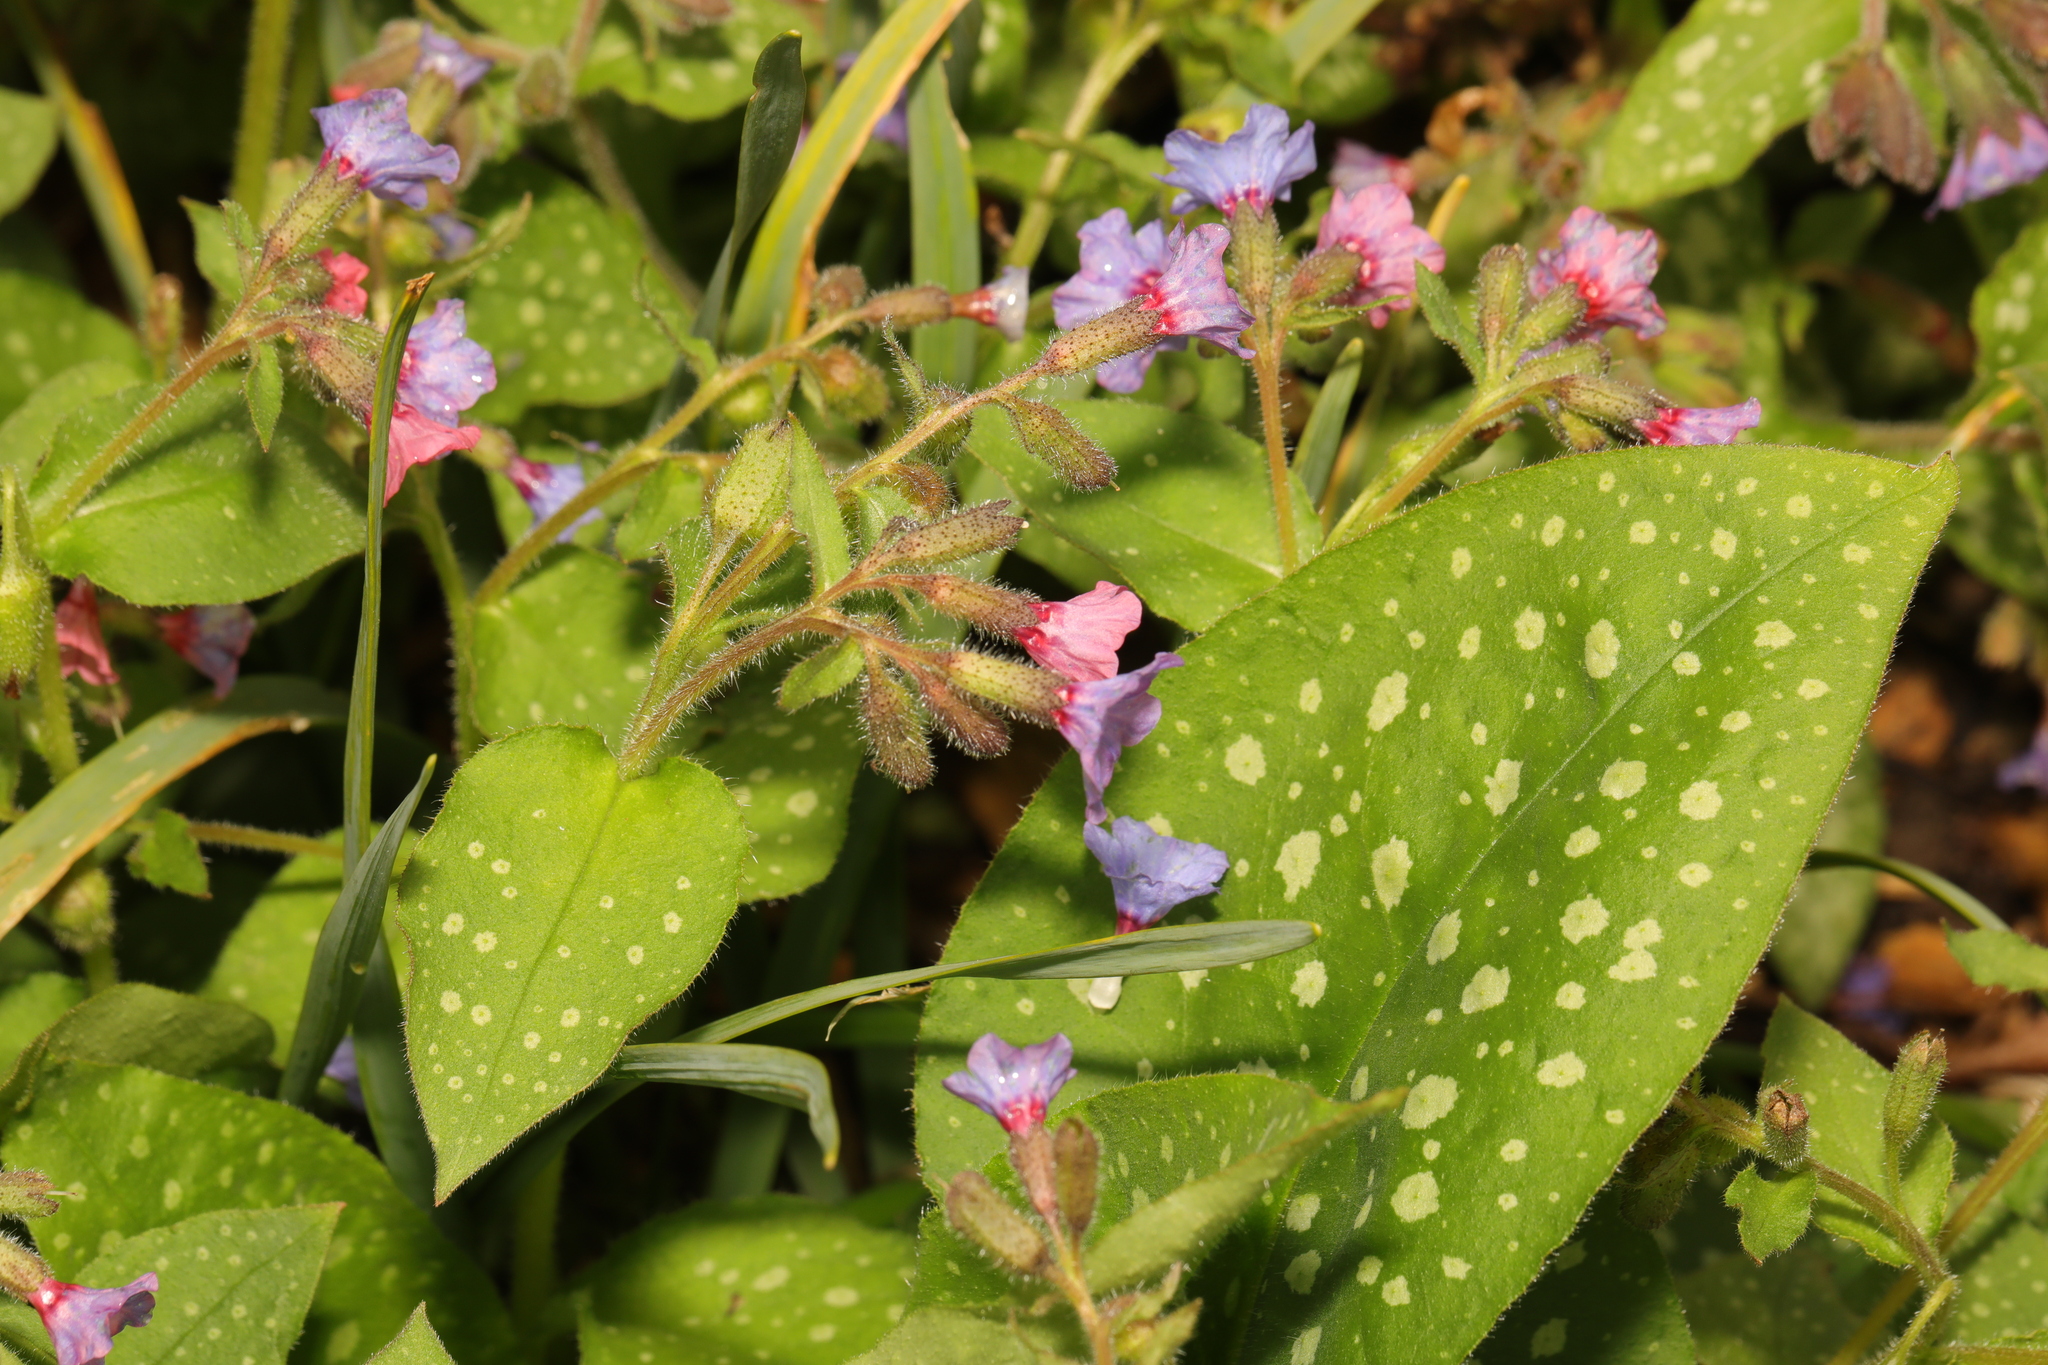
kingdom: Plantae
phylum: Tracheophyta
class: Magnoliopsida
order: Boraginales
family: Boraginaceae
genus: Pulmonaria
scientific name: Pulmonaria officinalis
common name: Lungwort
